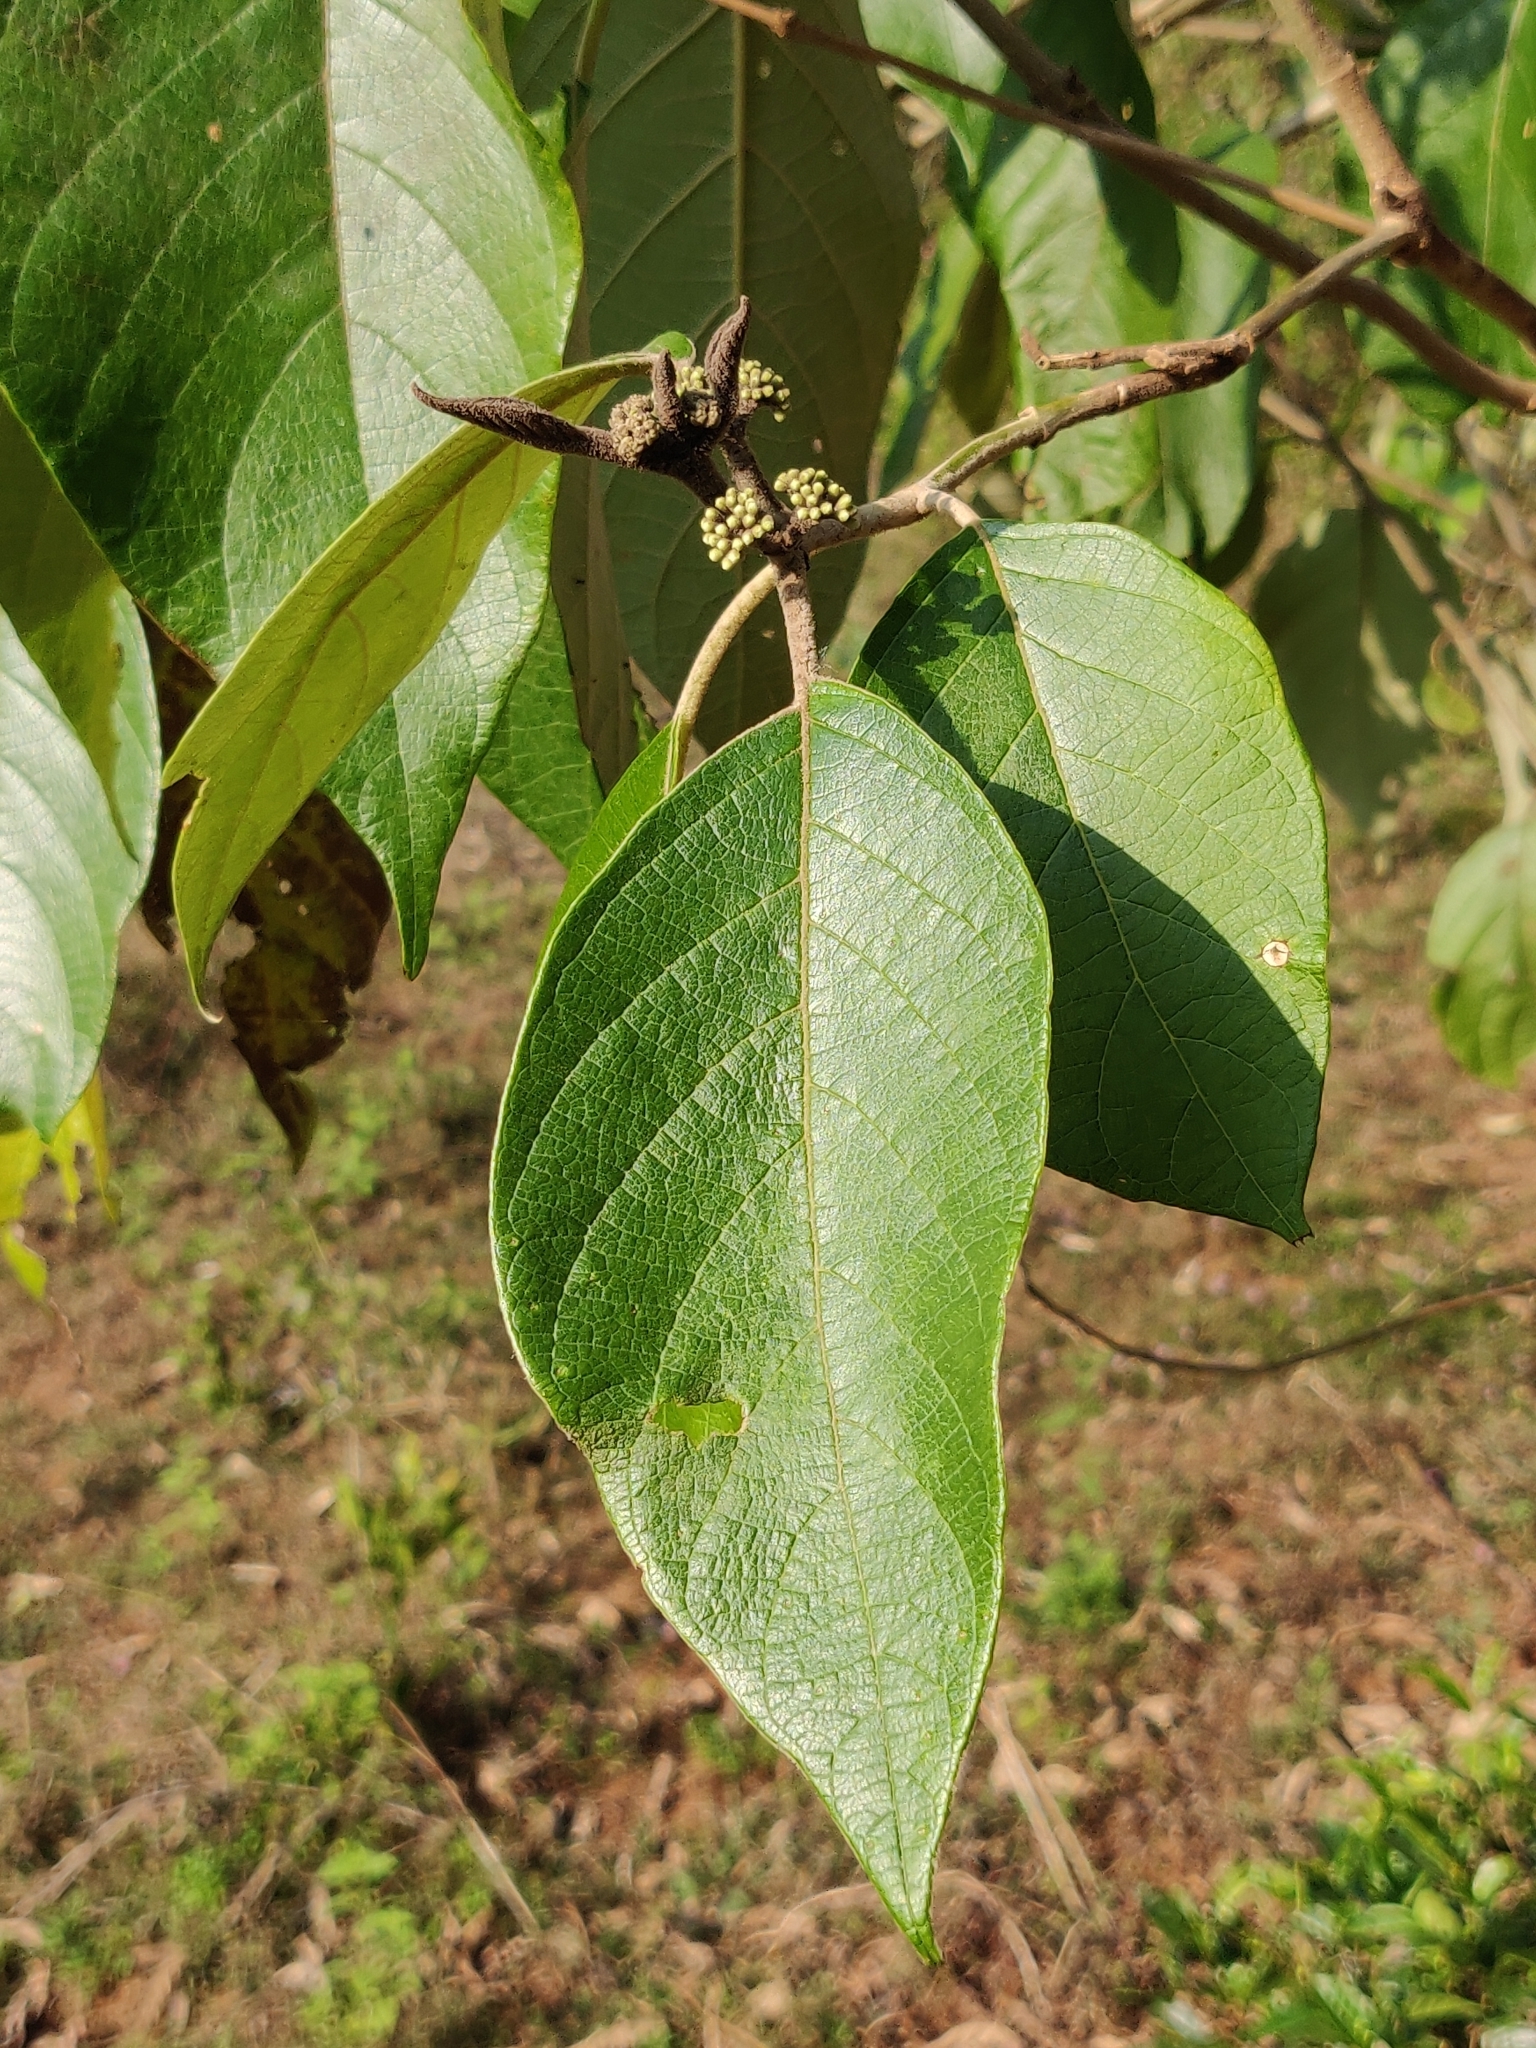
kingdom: Plantae
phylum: Tracheophyta
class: Magnoliopsida
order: Lamiales
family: Lamiaceae
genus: Callicarpa
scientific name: Callicarpa tomentosa
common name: Great woolly malayan-lilac
